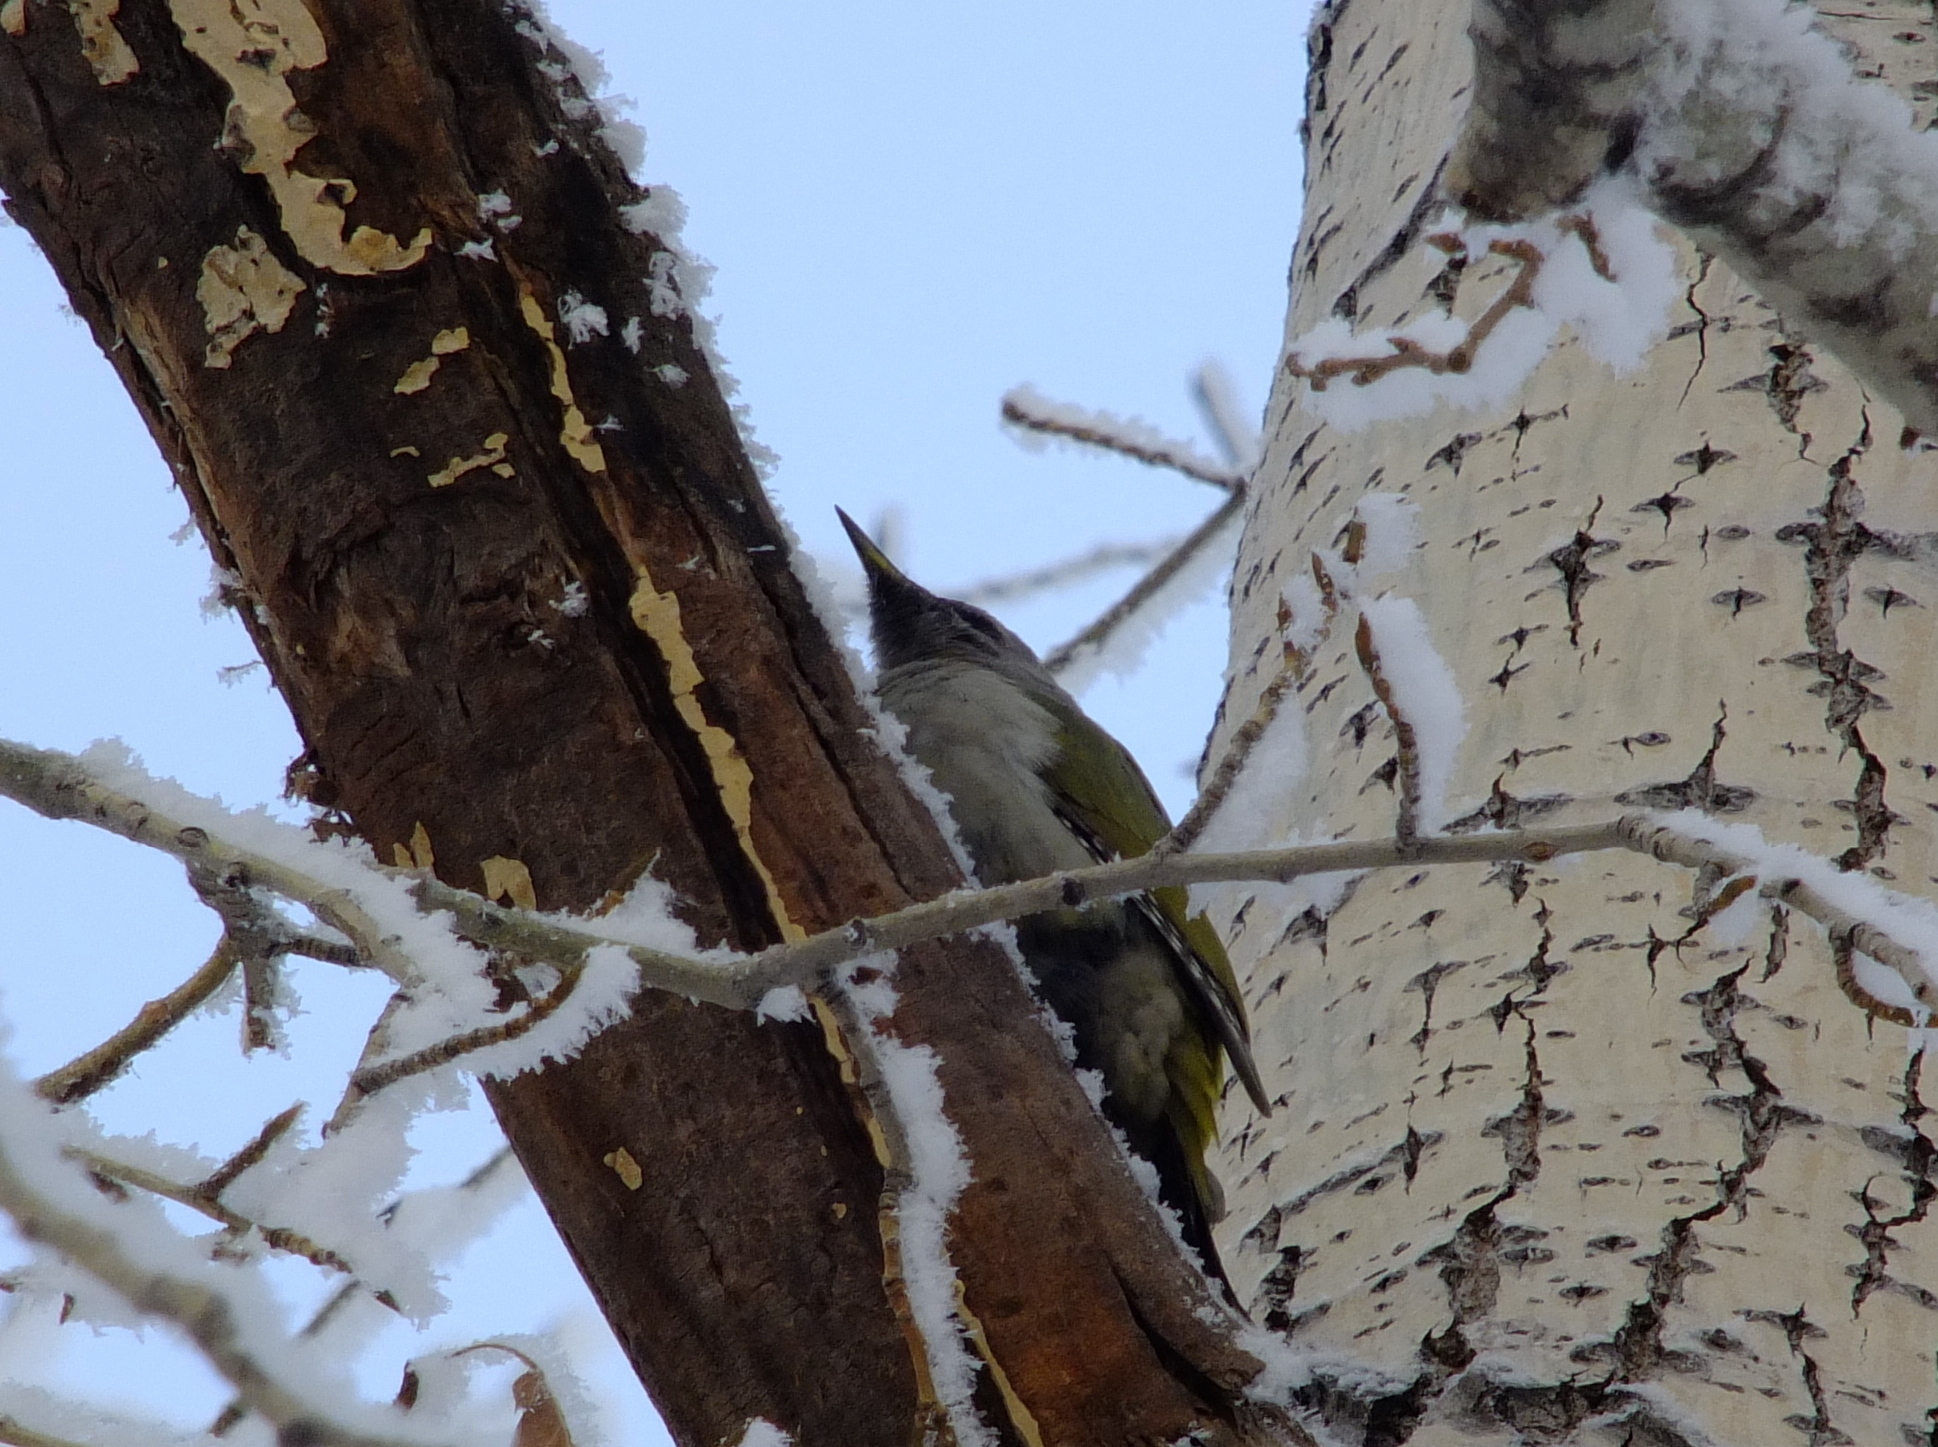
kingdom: Animalia
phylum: Chordata
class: Aves
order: Piciformes
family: Picidae
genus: Picus
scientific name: Picus canus
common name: Grey-headed woodpecker
